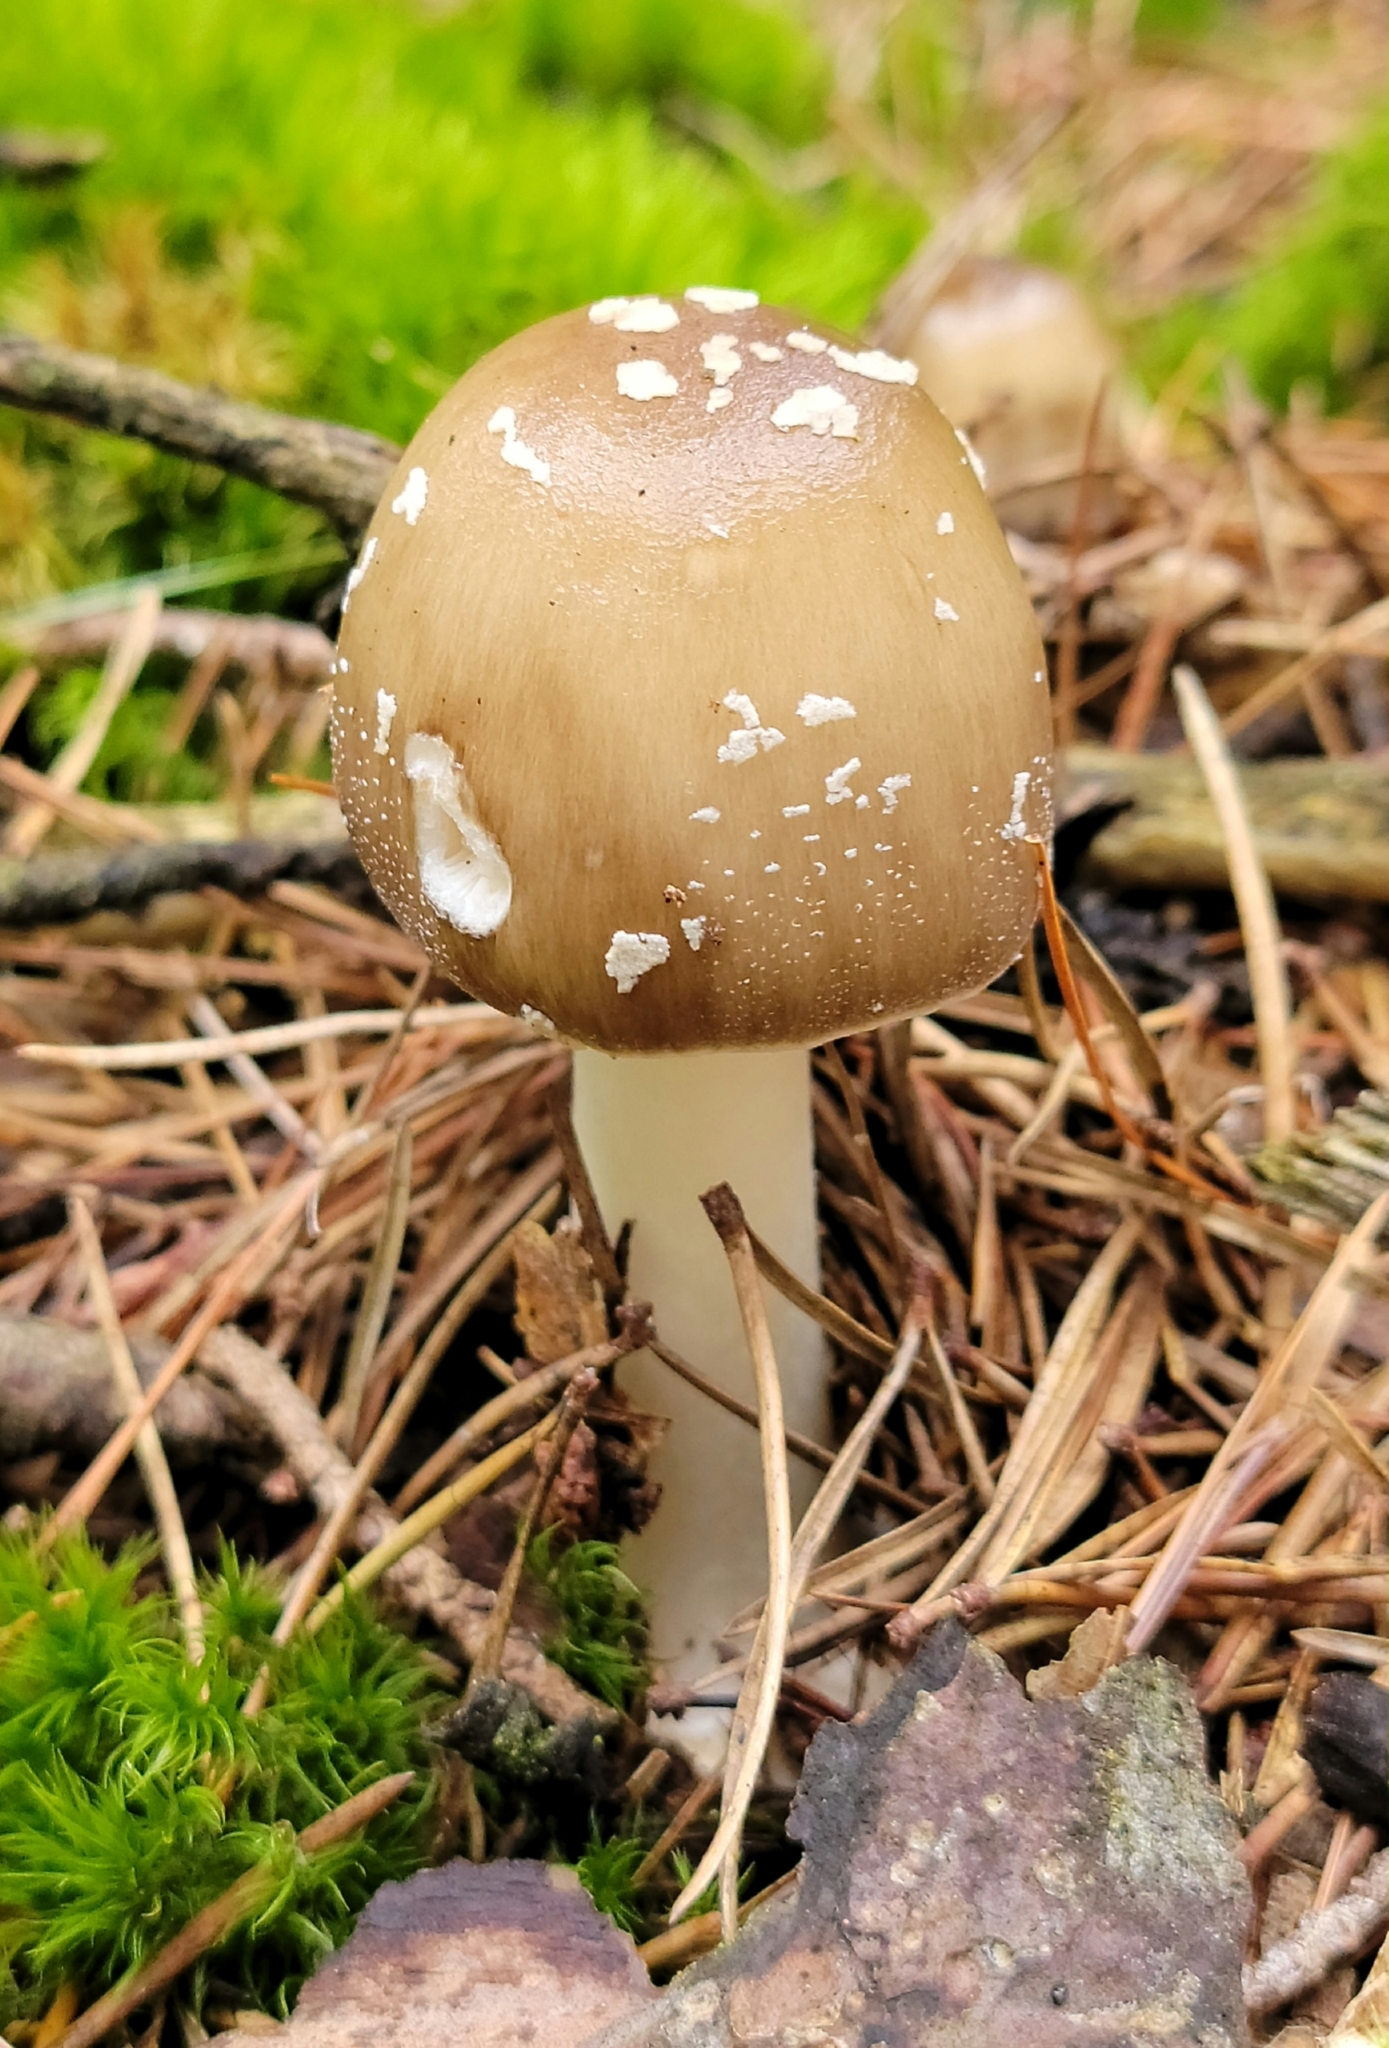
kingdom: Fungi
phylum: Basidiomycota
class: Agaricomycetes
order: Agaricales
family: Amanitaceae
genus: Amanita
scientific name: Amanita brunnescens
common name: Brown american star-footed amanita
